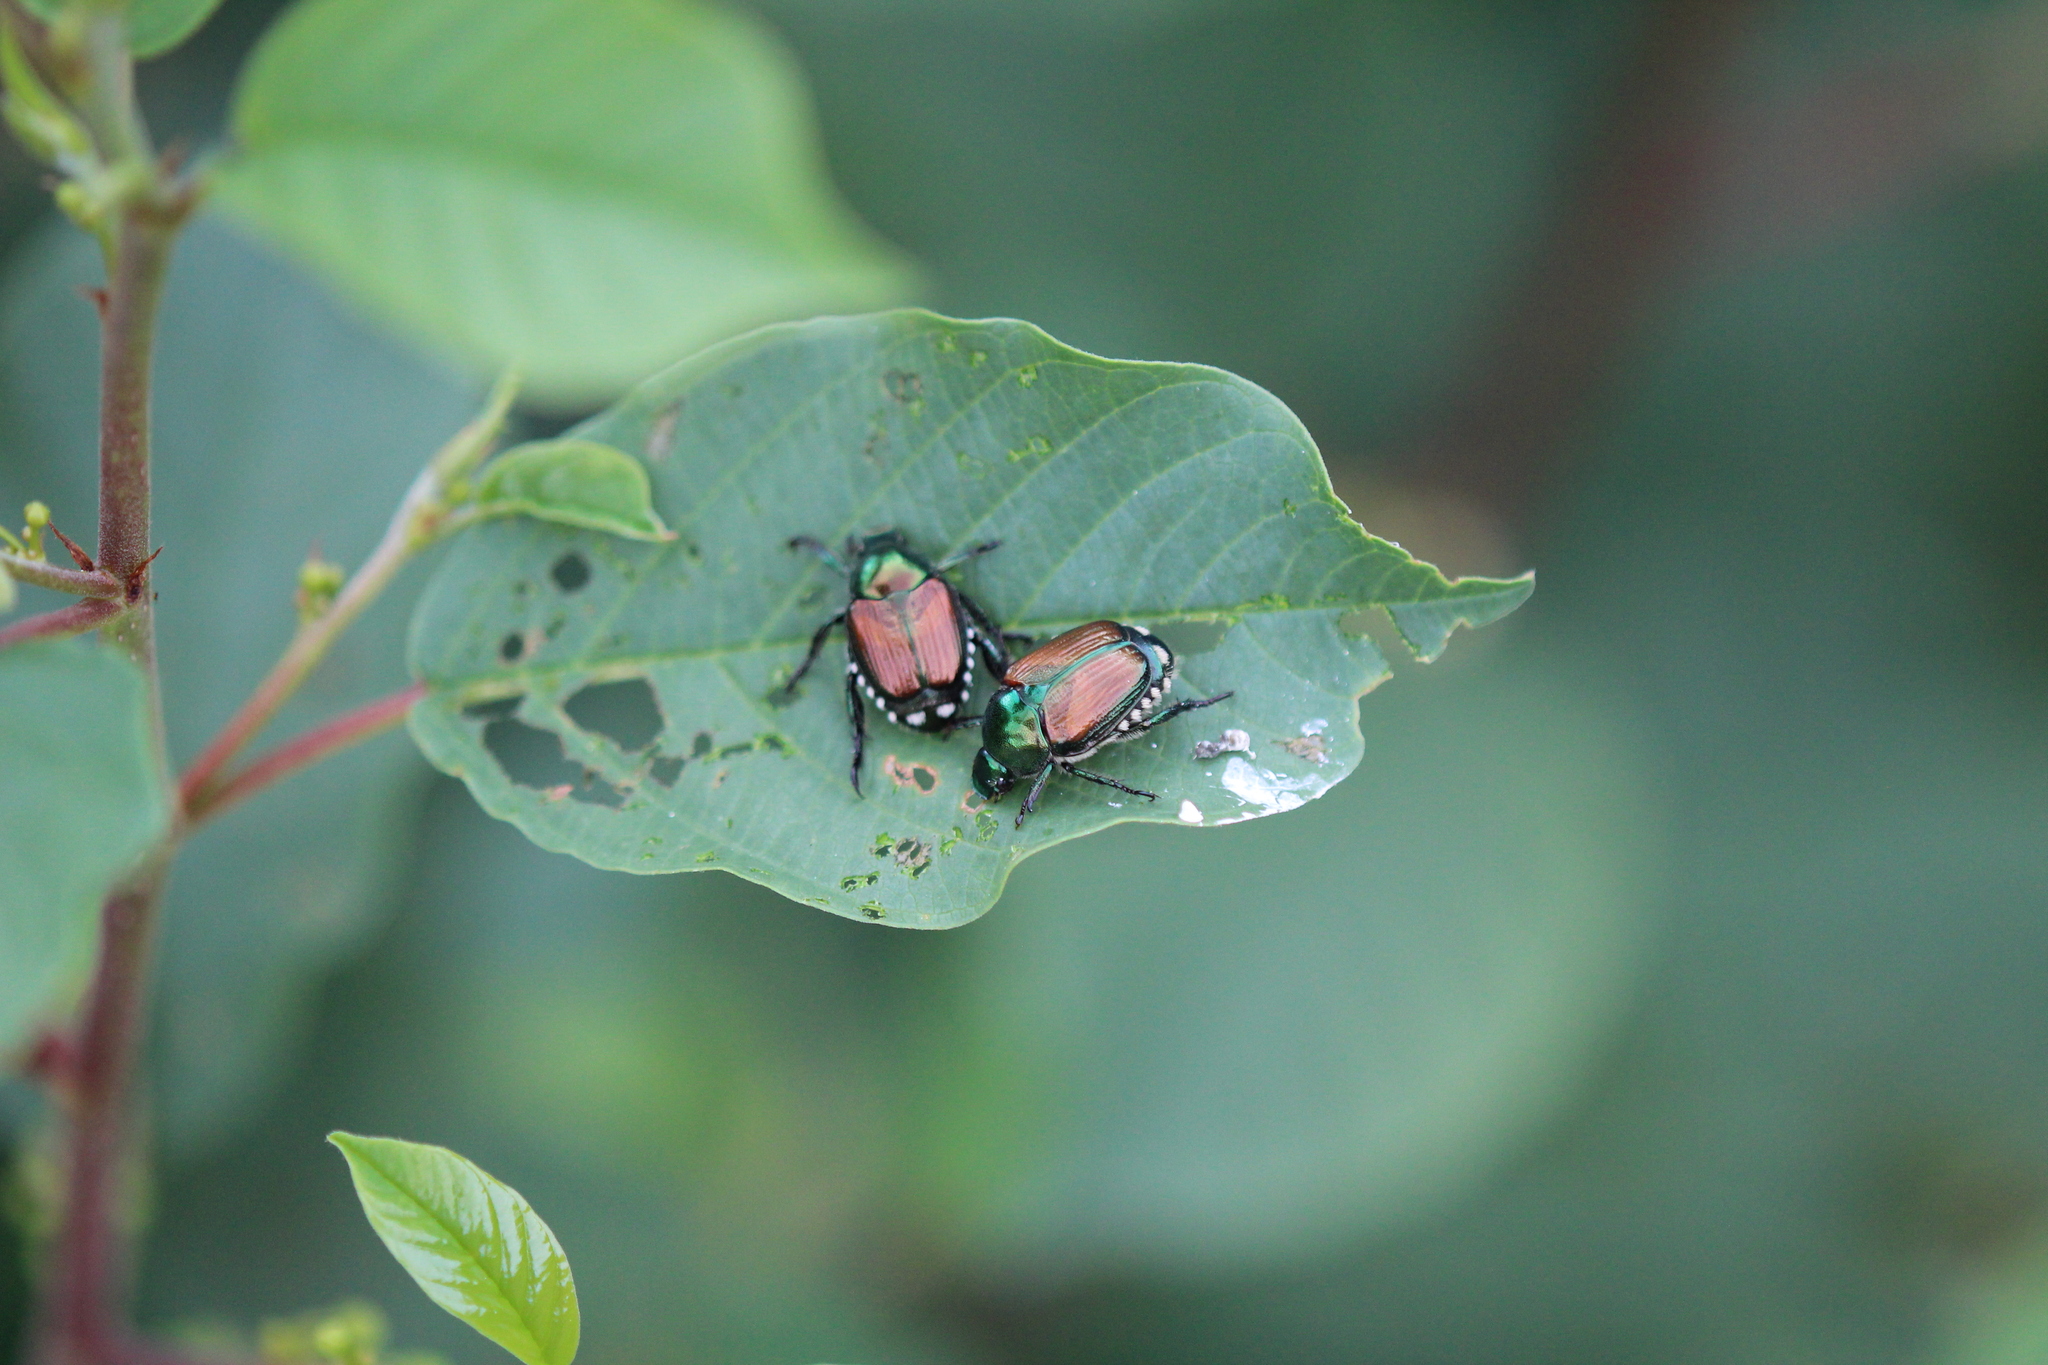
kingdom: Animalia
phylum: Arthropoda
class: Insecta
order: Coleoptera
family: Scarabaeidae
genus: Popillia
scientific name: Popillia japonica
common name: Japanese beetle
